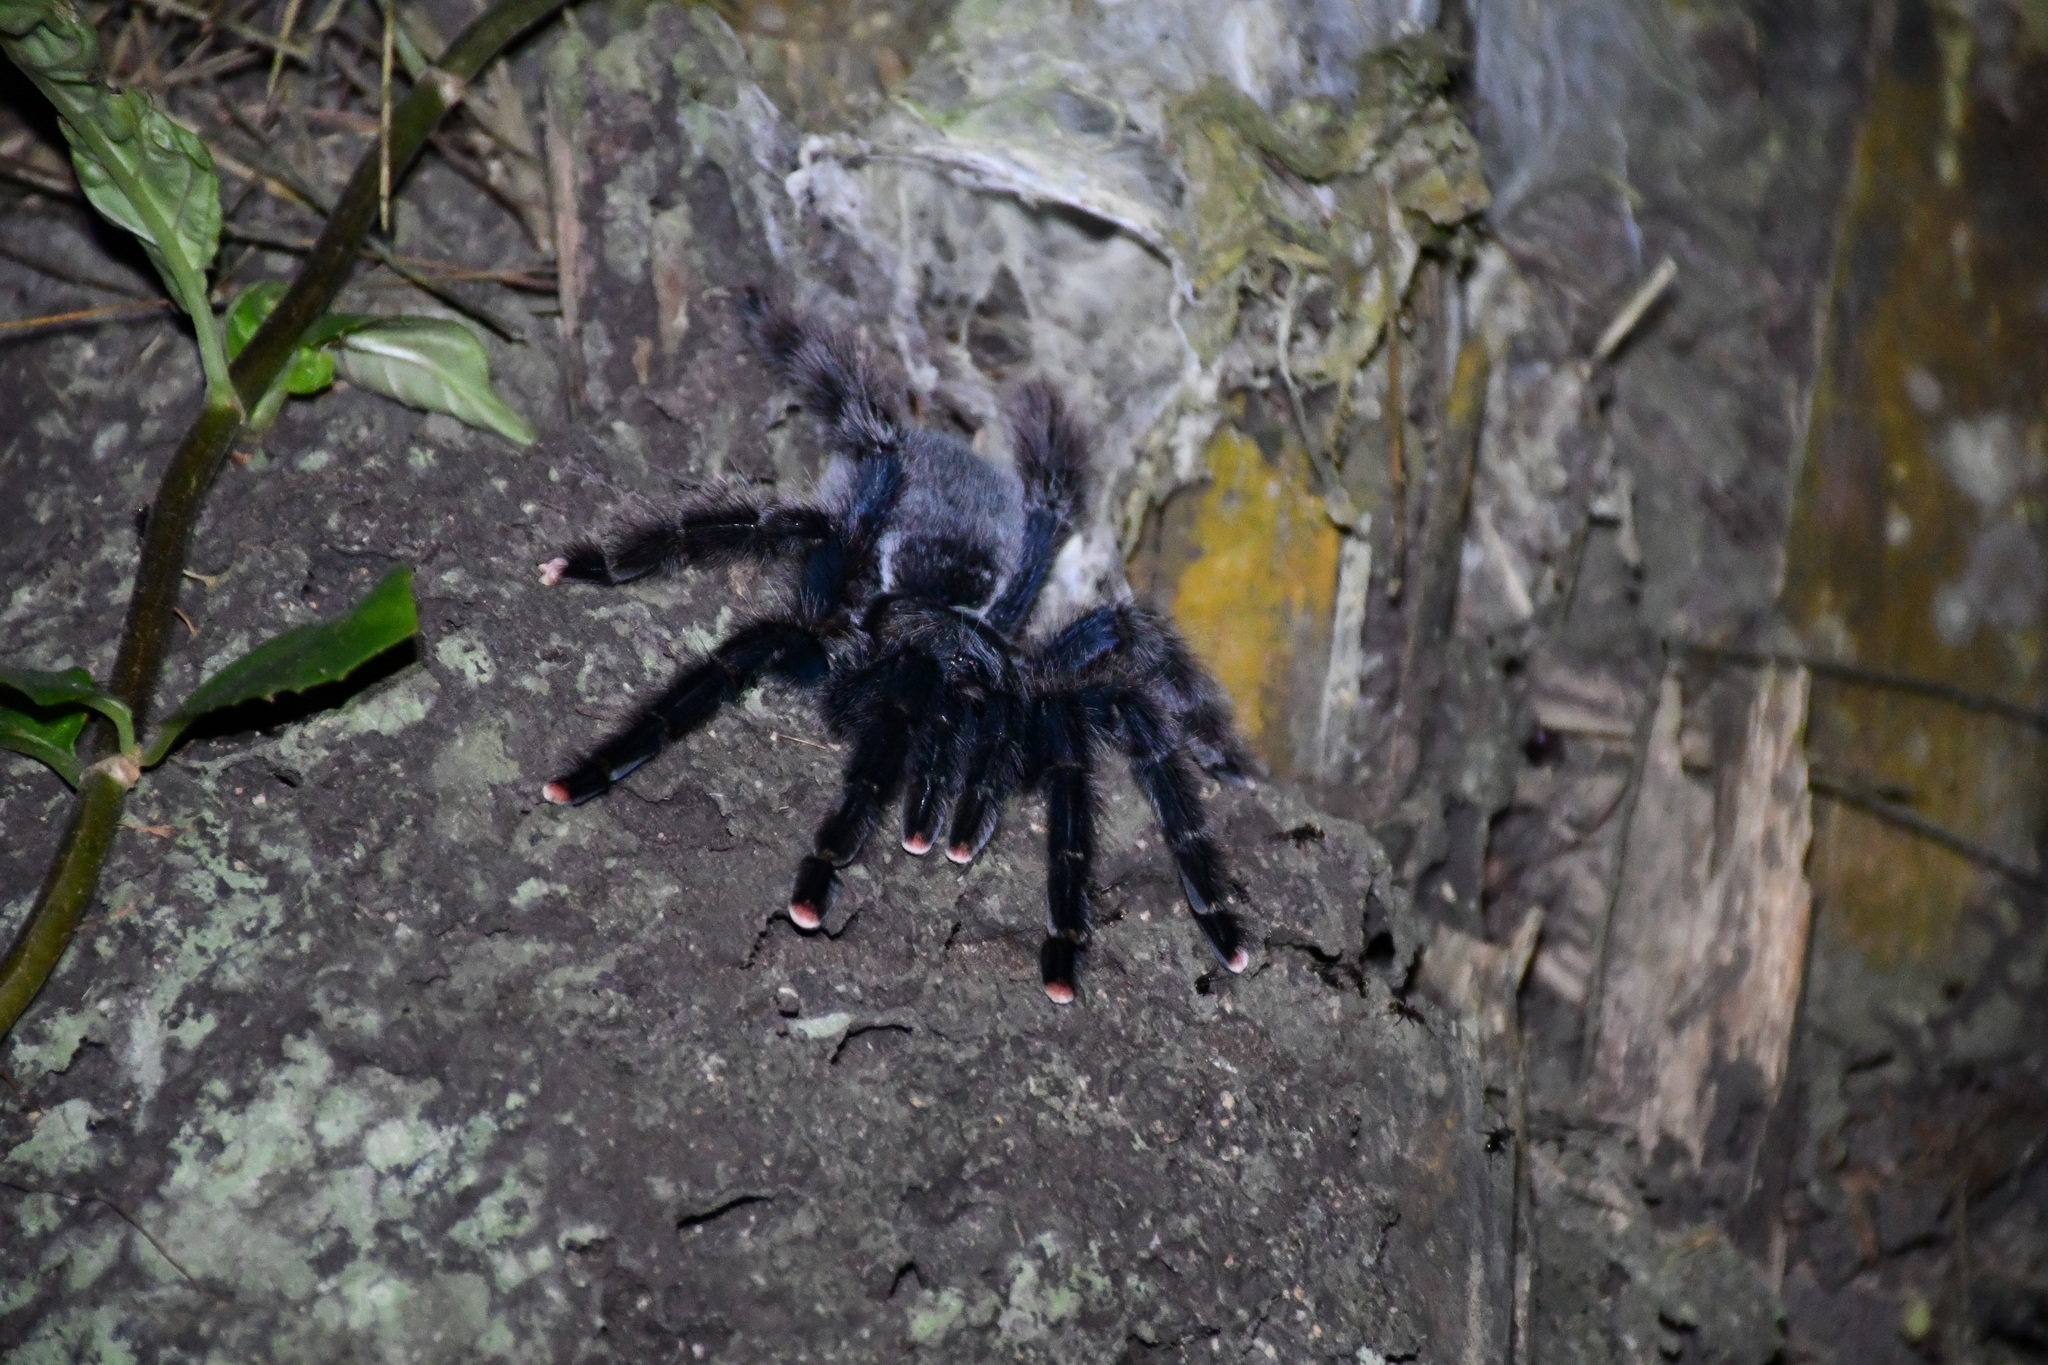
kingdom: Animalia
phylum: Arthropoda
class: Arachnida
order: Araneae
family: Theraphosidae
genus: Avicularia
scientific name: Avicularia avicularia
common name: Tarantula spiders
